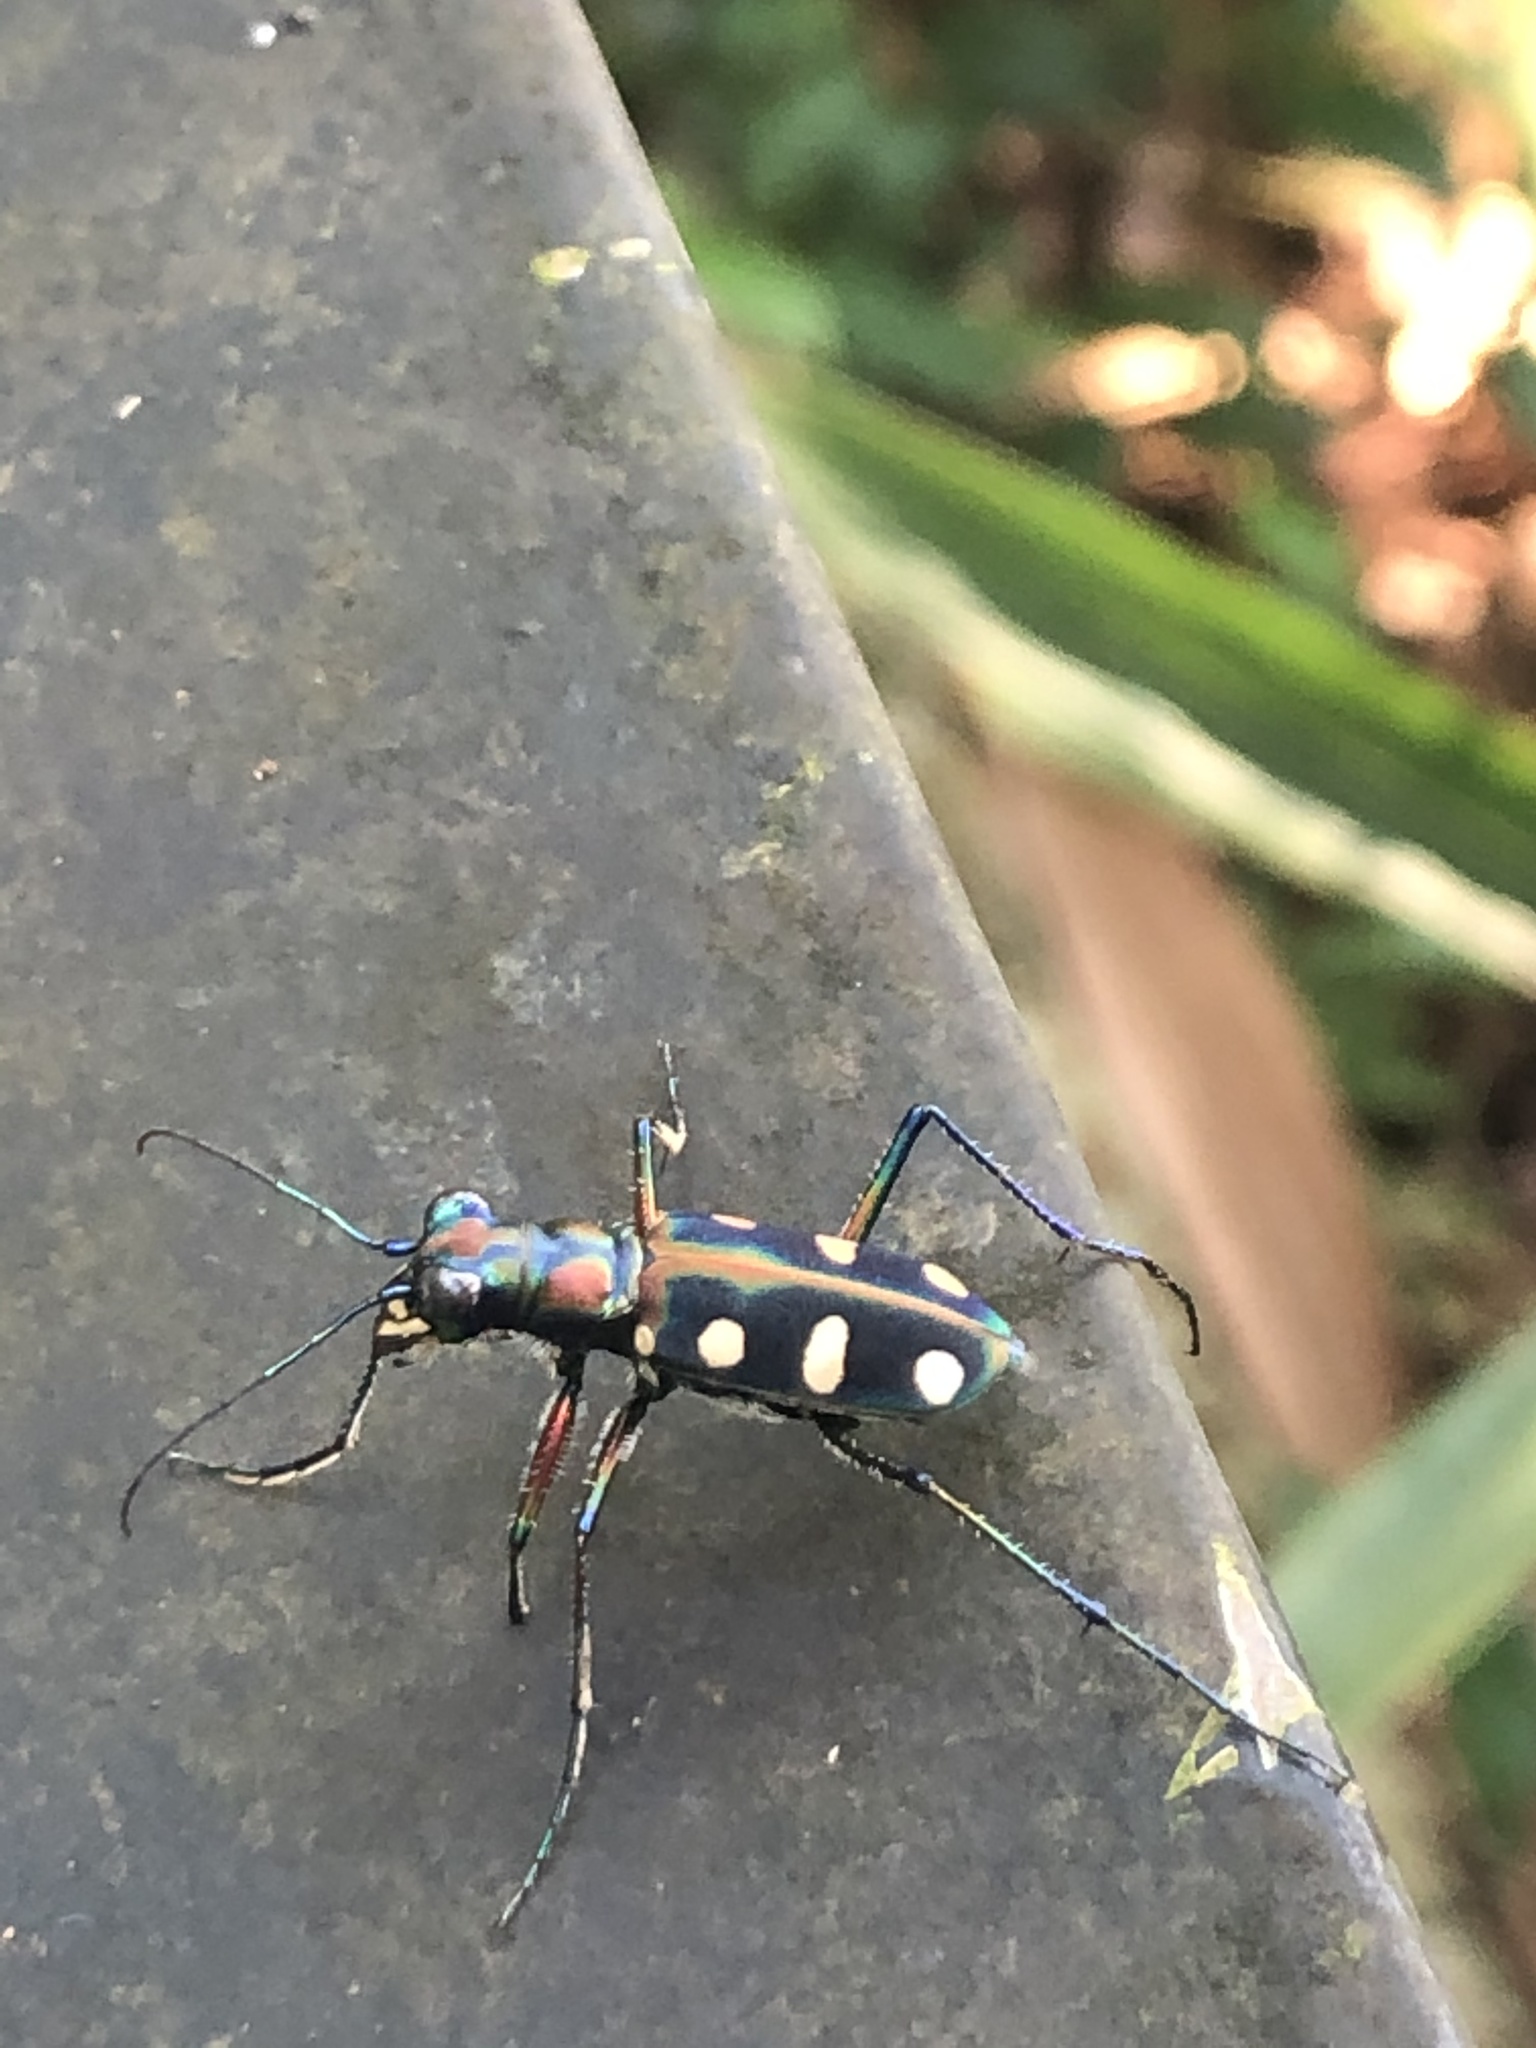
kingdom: Animalia
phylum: Arthropoda
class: Insecta
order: Coleoptera
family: Carabidae
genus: Cicindela
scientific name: Cicindela juxtata
